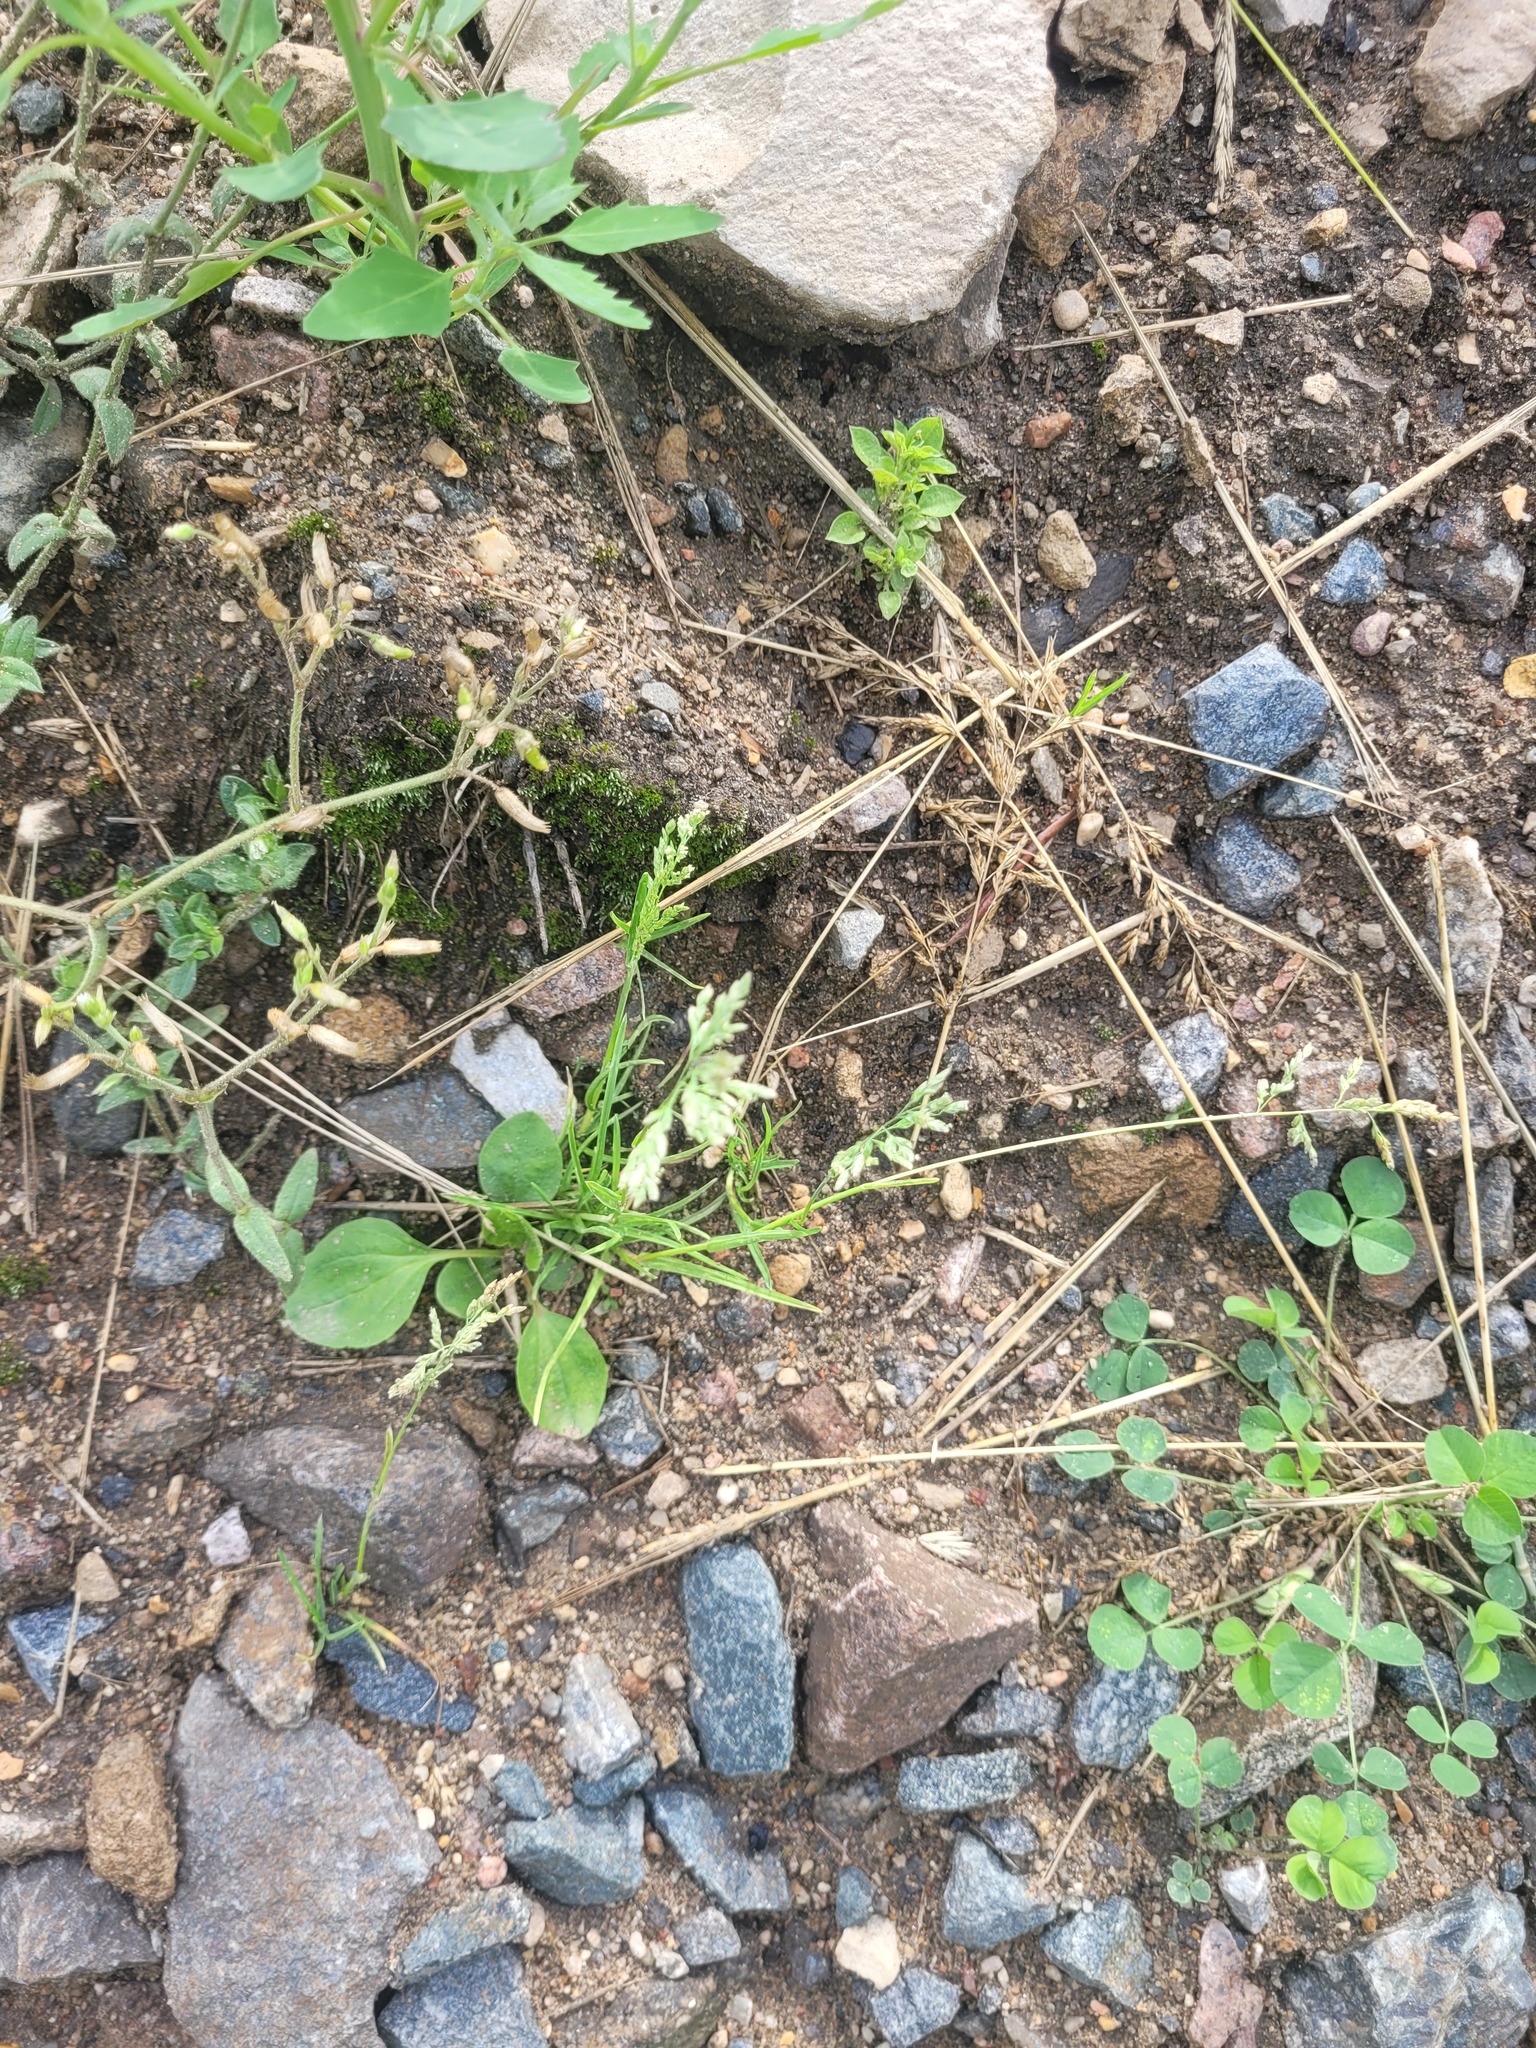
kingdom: Plantae
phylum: Tracheophyta
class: Liliopsida
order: Poales
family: Poaceae
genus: Poa
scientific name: Poa annua
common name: Annual bluegrass
